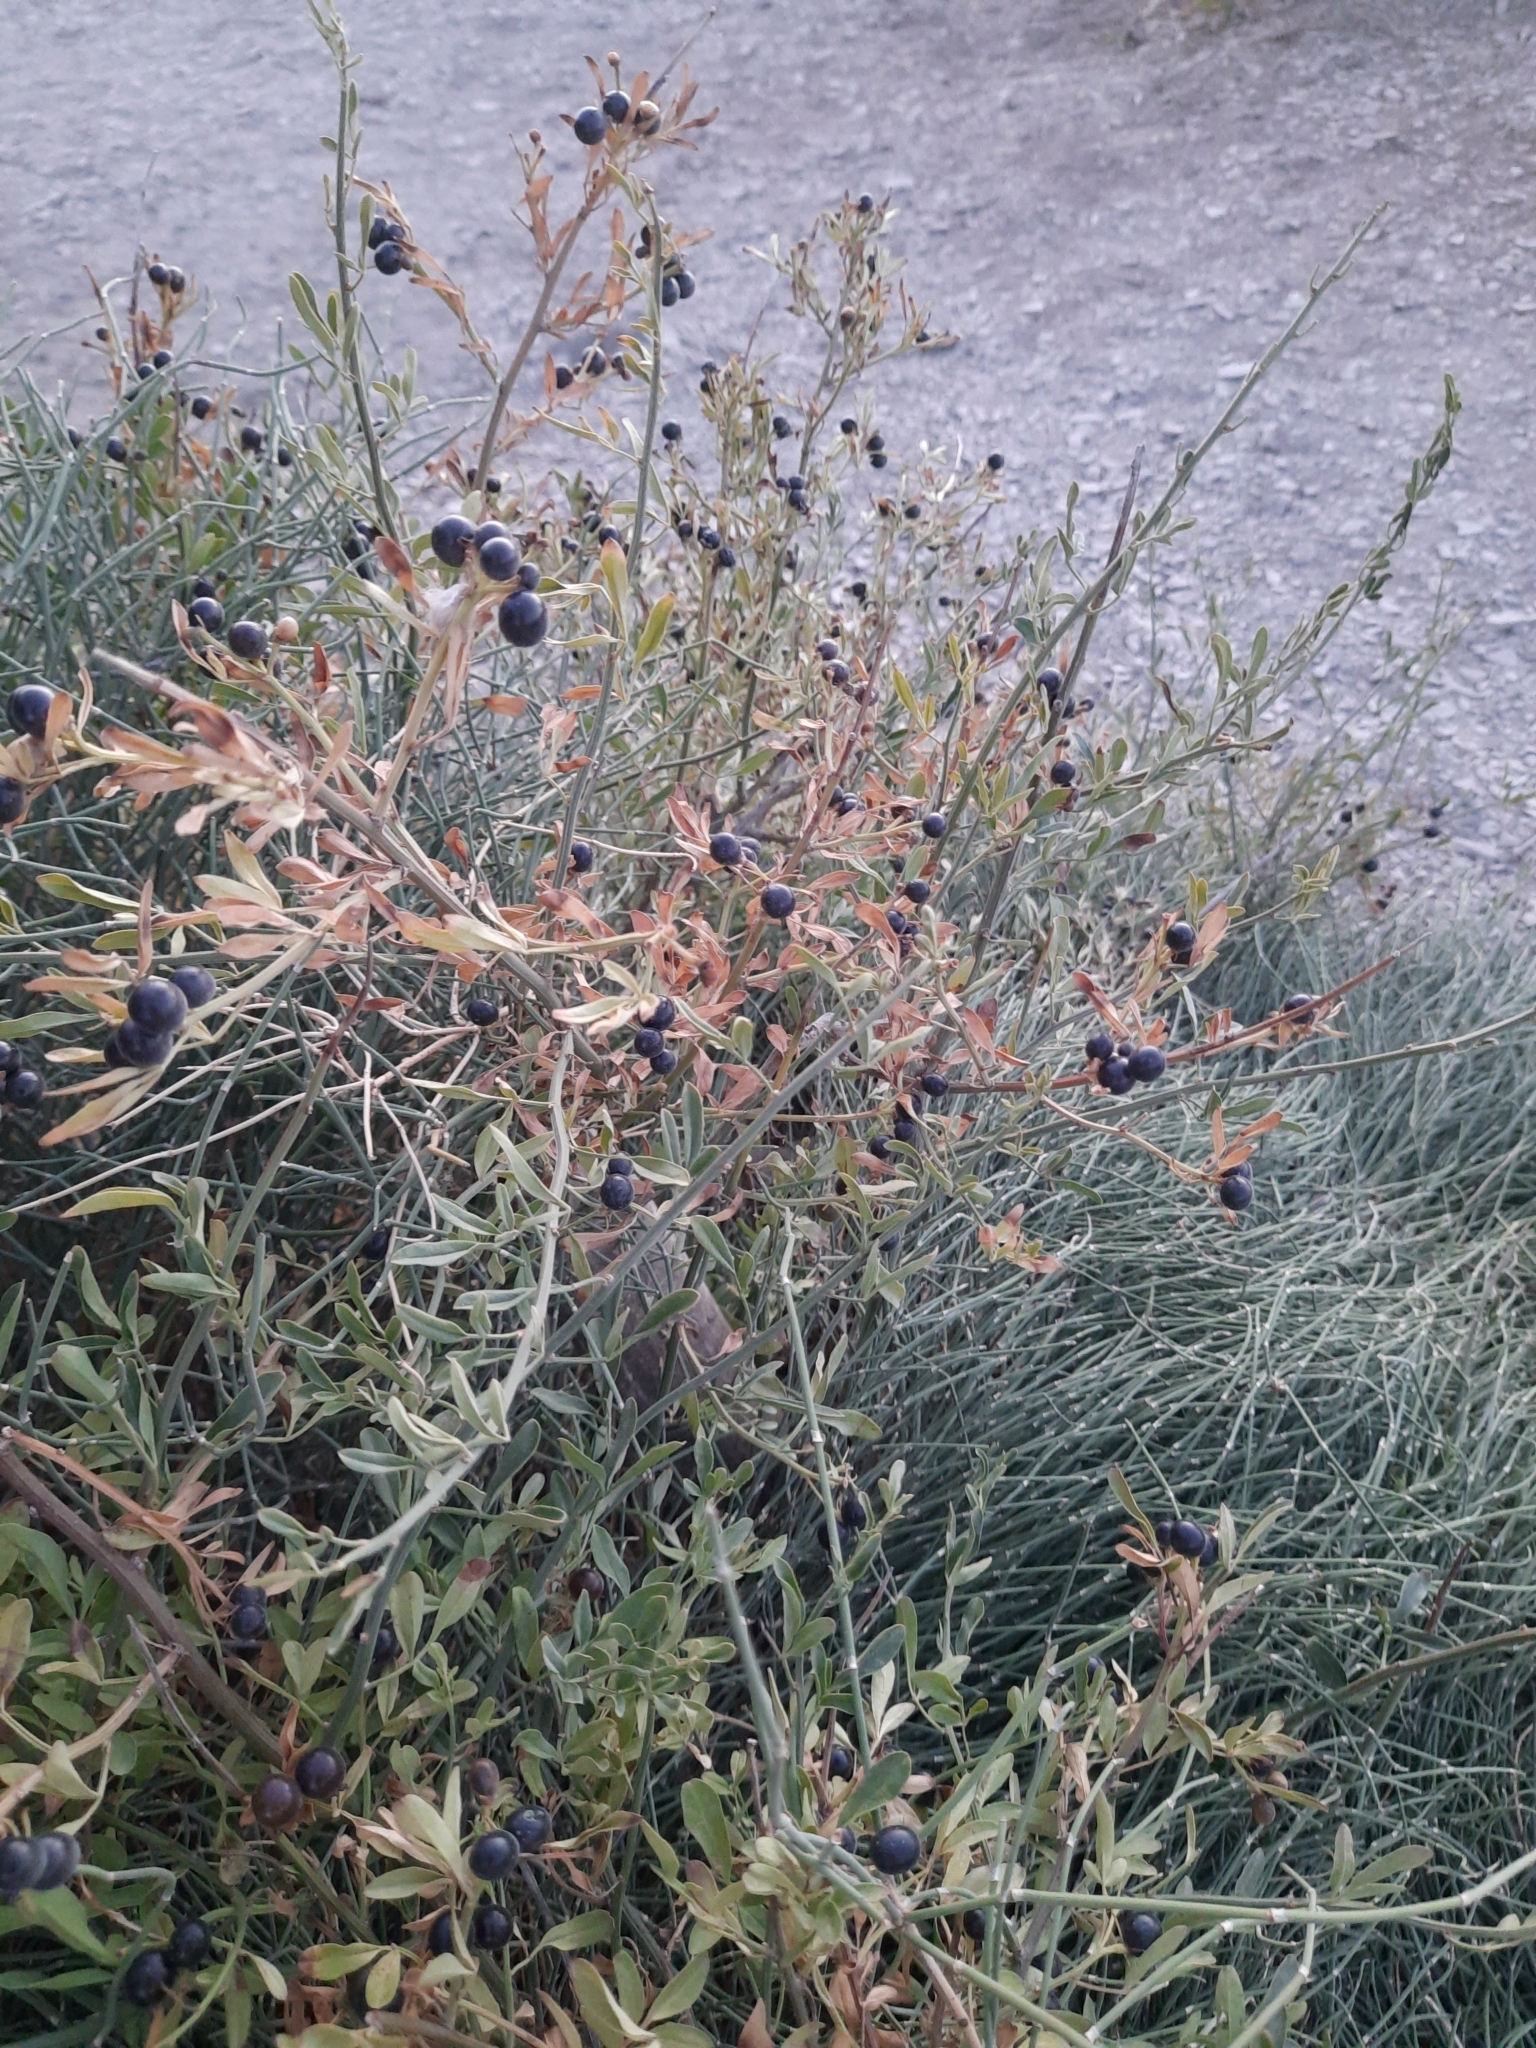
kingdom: Plantae
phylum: Tracheophyta
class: Magnoliopsida
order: Lamiales
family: Oleaceae
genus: Chrysojasminum
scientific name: Chrysojasminum fruticans
